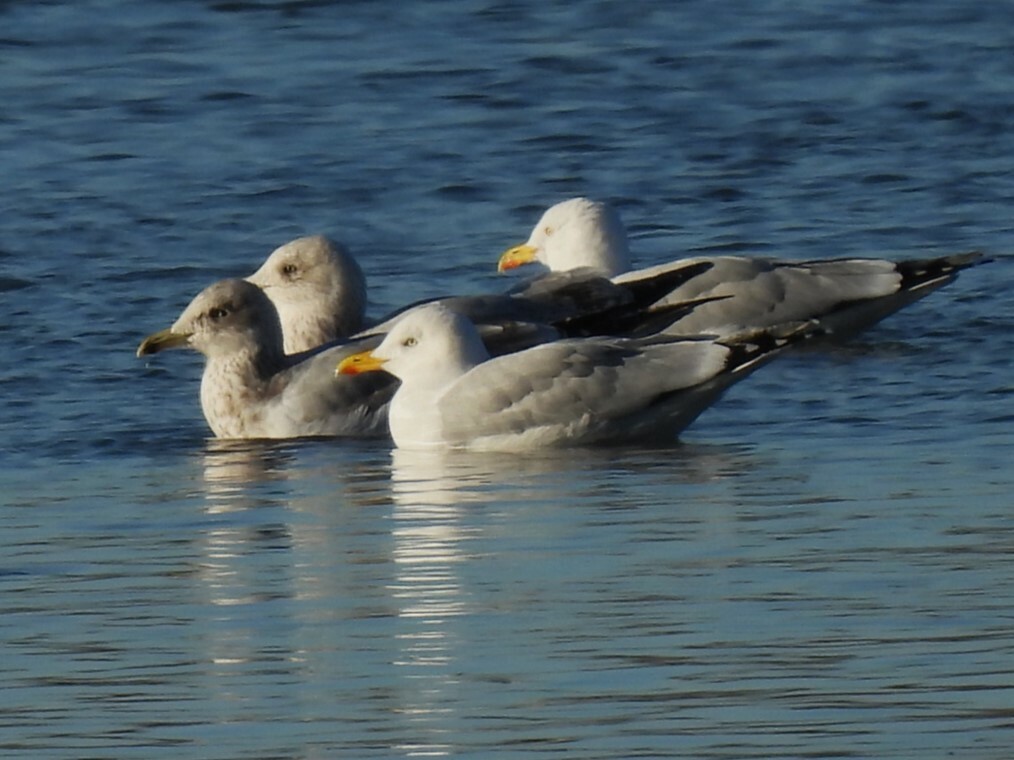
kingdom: Animalia
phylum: Chordata
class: Aves
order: Charadriiformes
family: Laridae
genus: Larus
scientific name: Larus argentatus
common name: Herring gull
